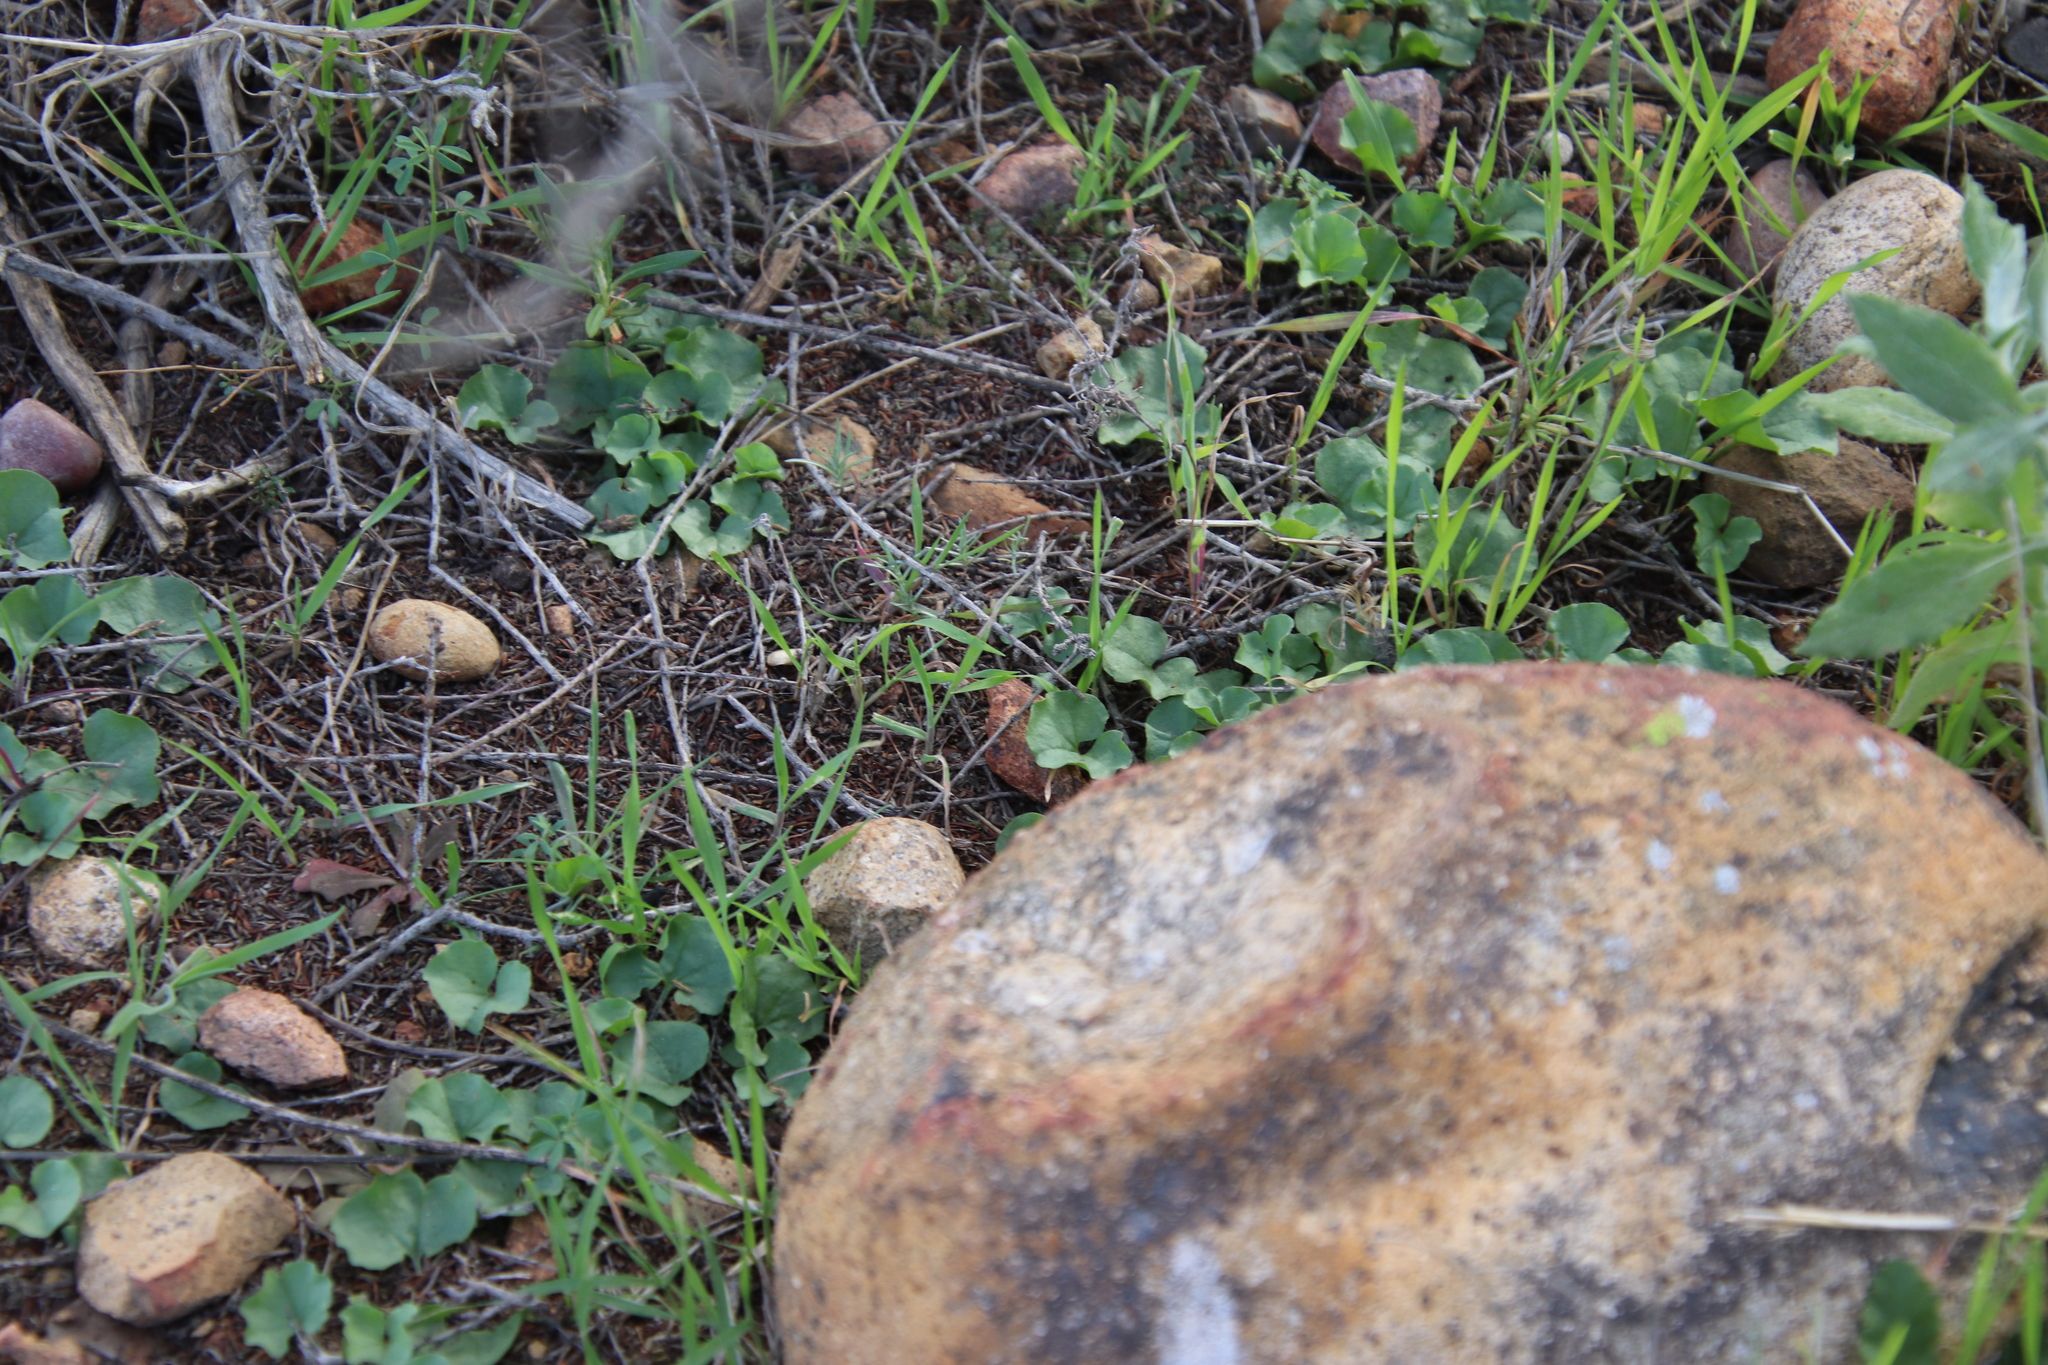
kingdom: Plantae
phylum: Tracheophyta
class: Magnoliopsida
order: Solanales
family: Convolvulaceae
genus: Dichondra
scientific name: Dichondra occidentalis
